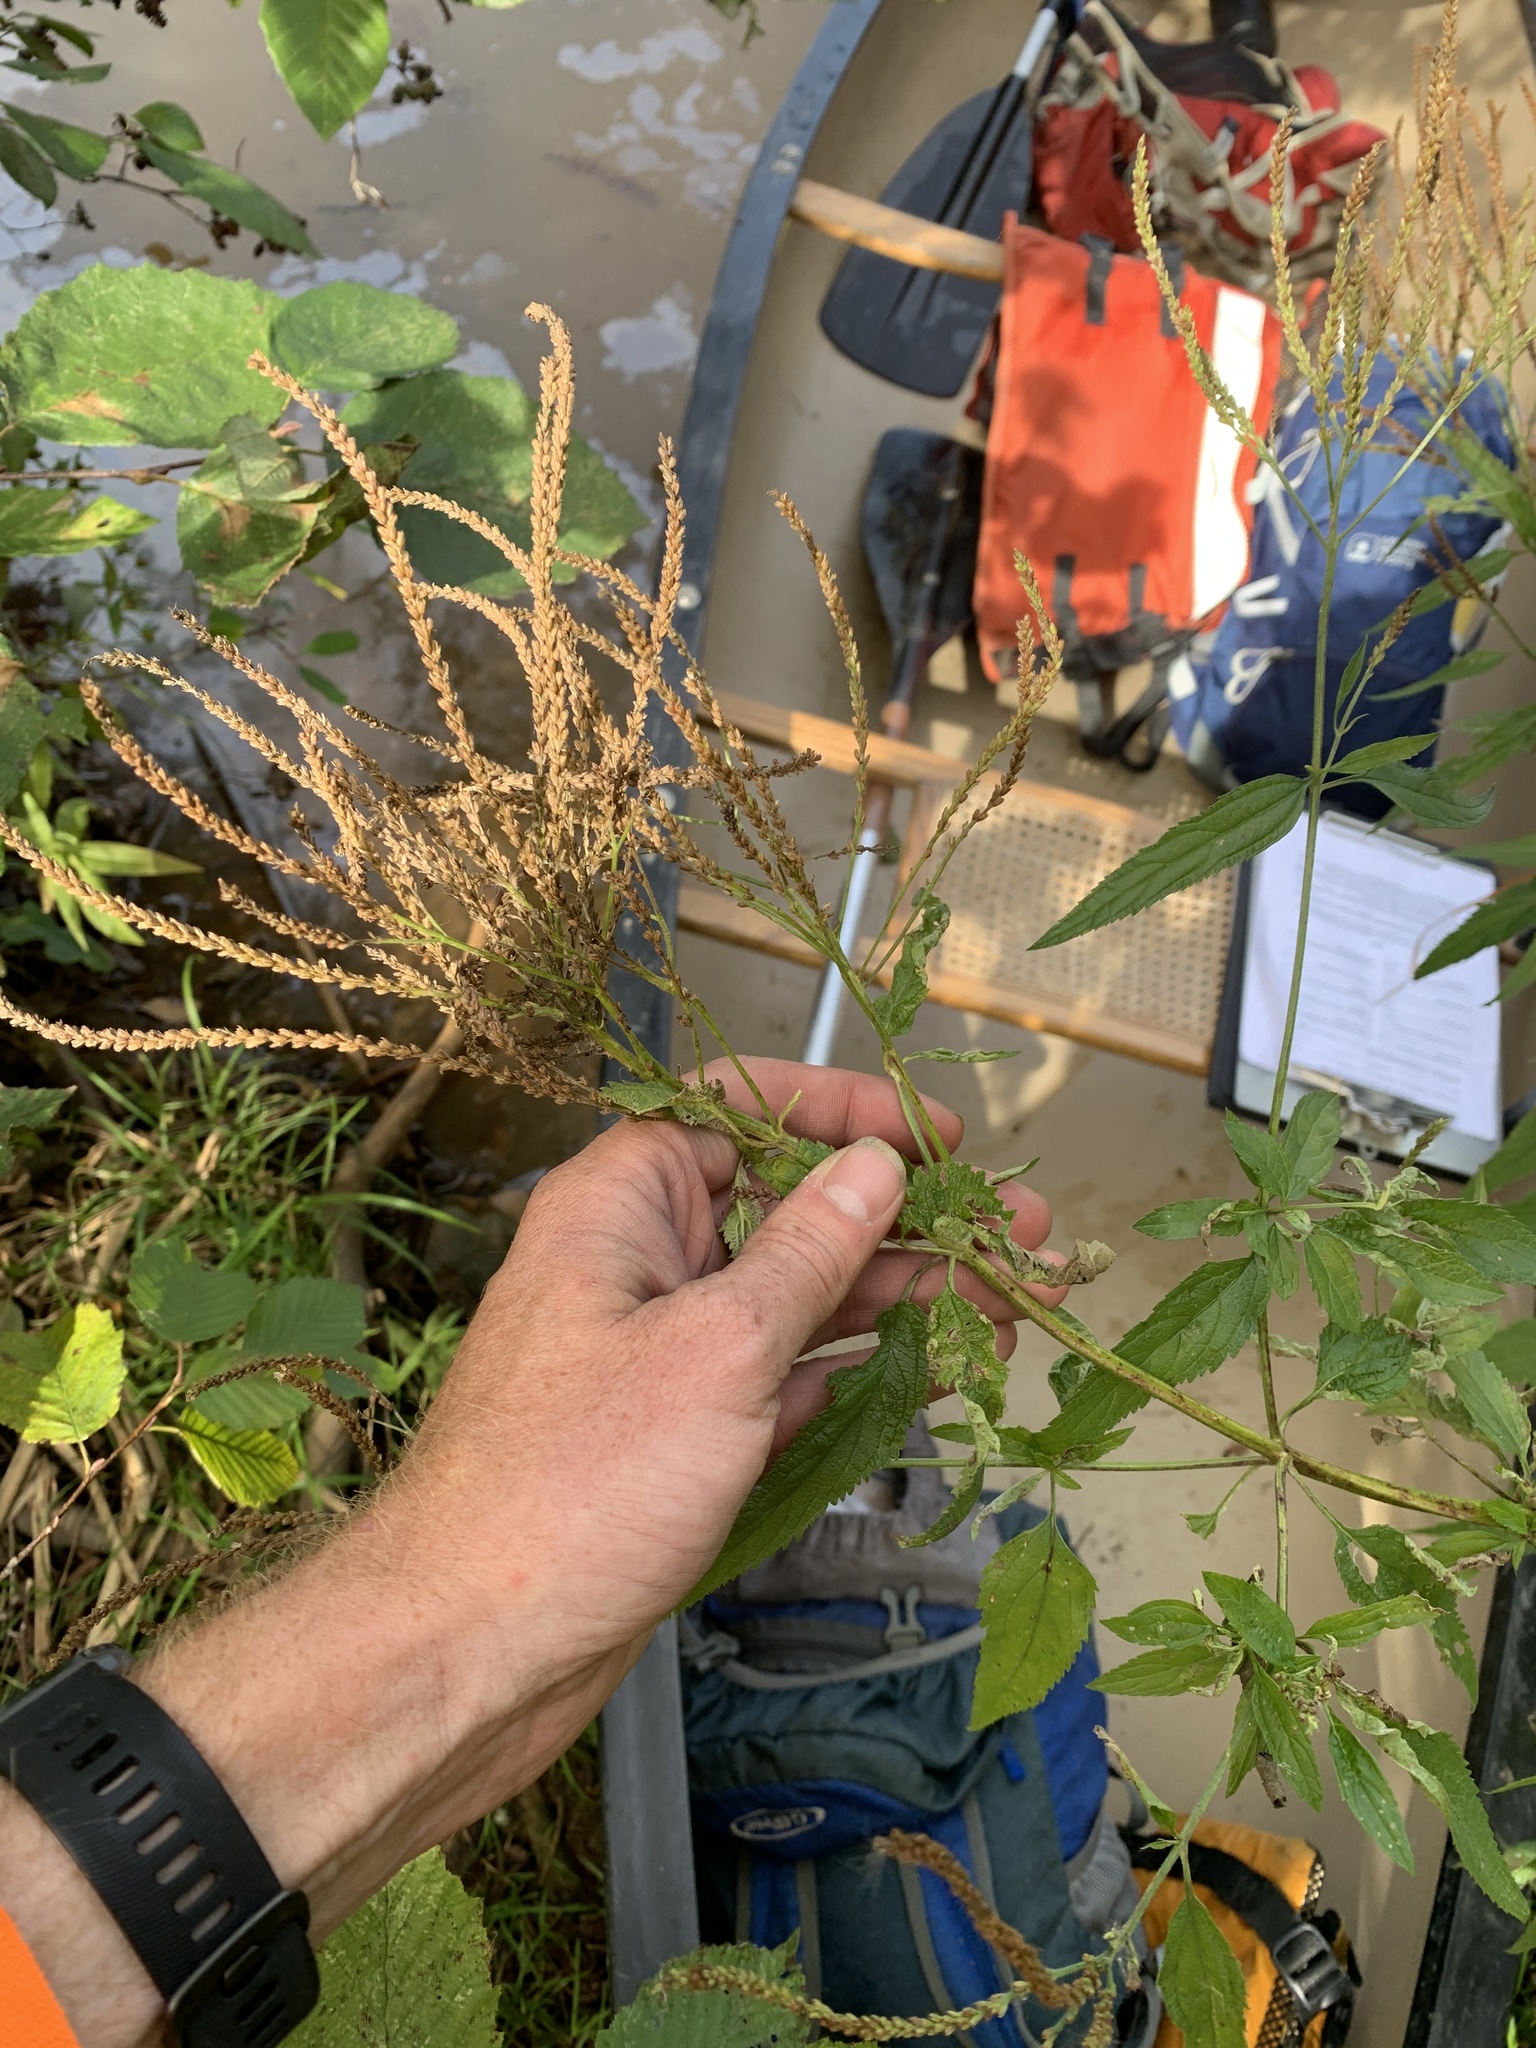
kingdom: Plantae
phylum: Tracheophyta
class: Magnoliopsida
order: Lamiales
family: Verbenaceae
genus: Verbena
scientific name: Verbena hastata
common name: American blue vervain
